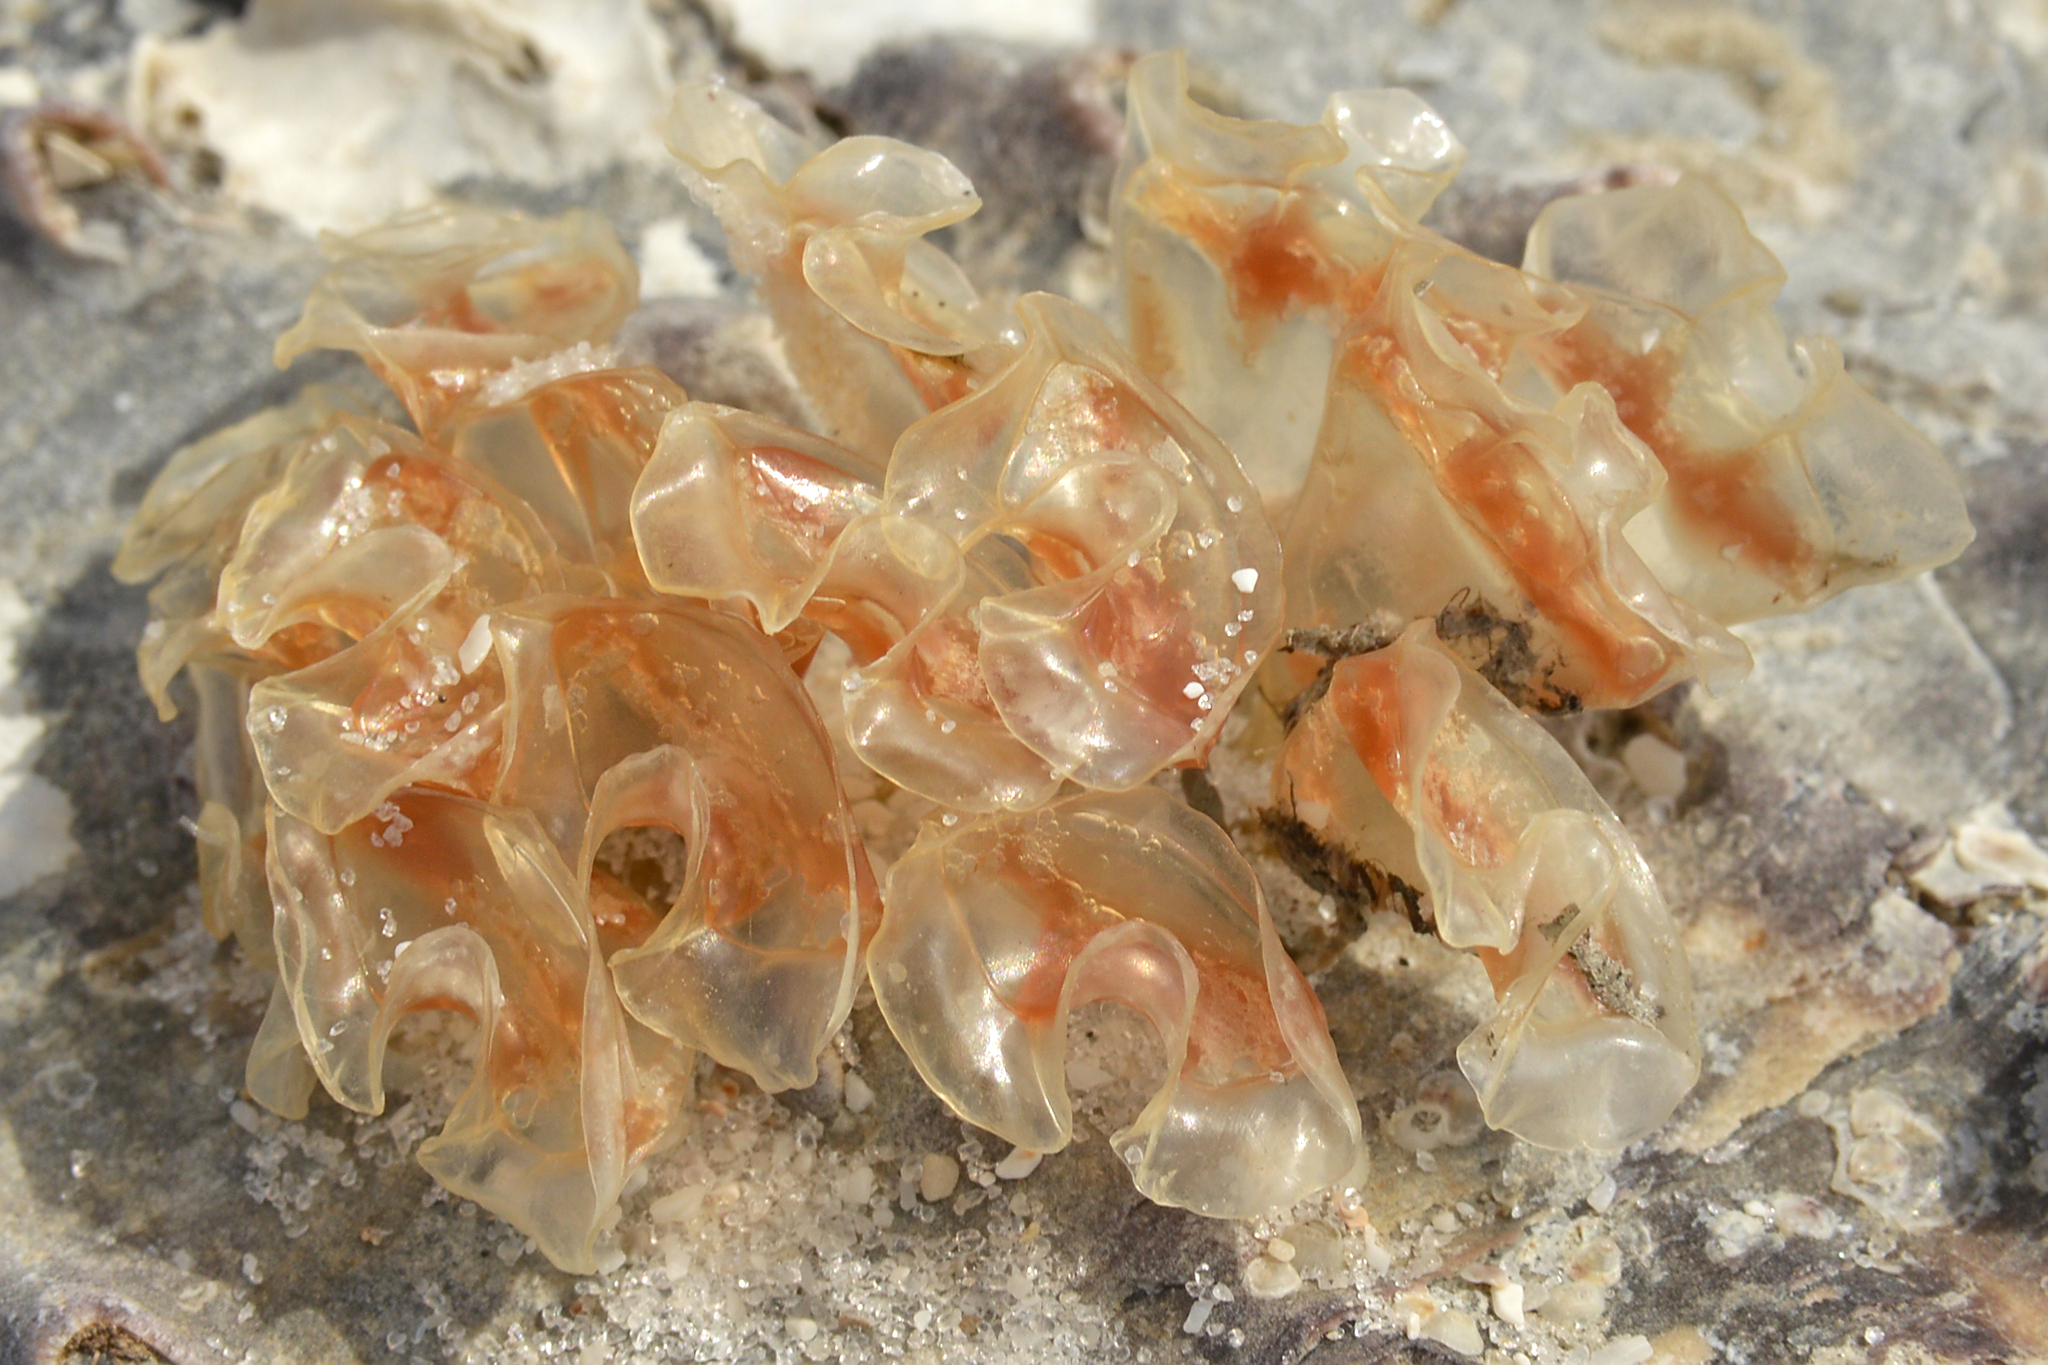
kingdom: Animalia
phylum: Mollusca
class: Gastropoda
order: Neogastropoda
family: Fasciolariidae
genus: Cinctura
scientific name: Cinctura hunteria
